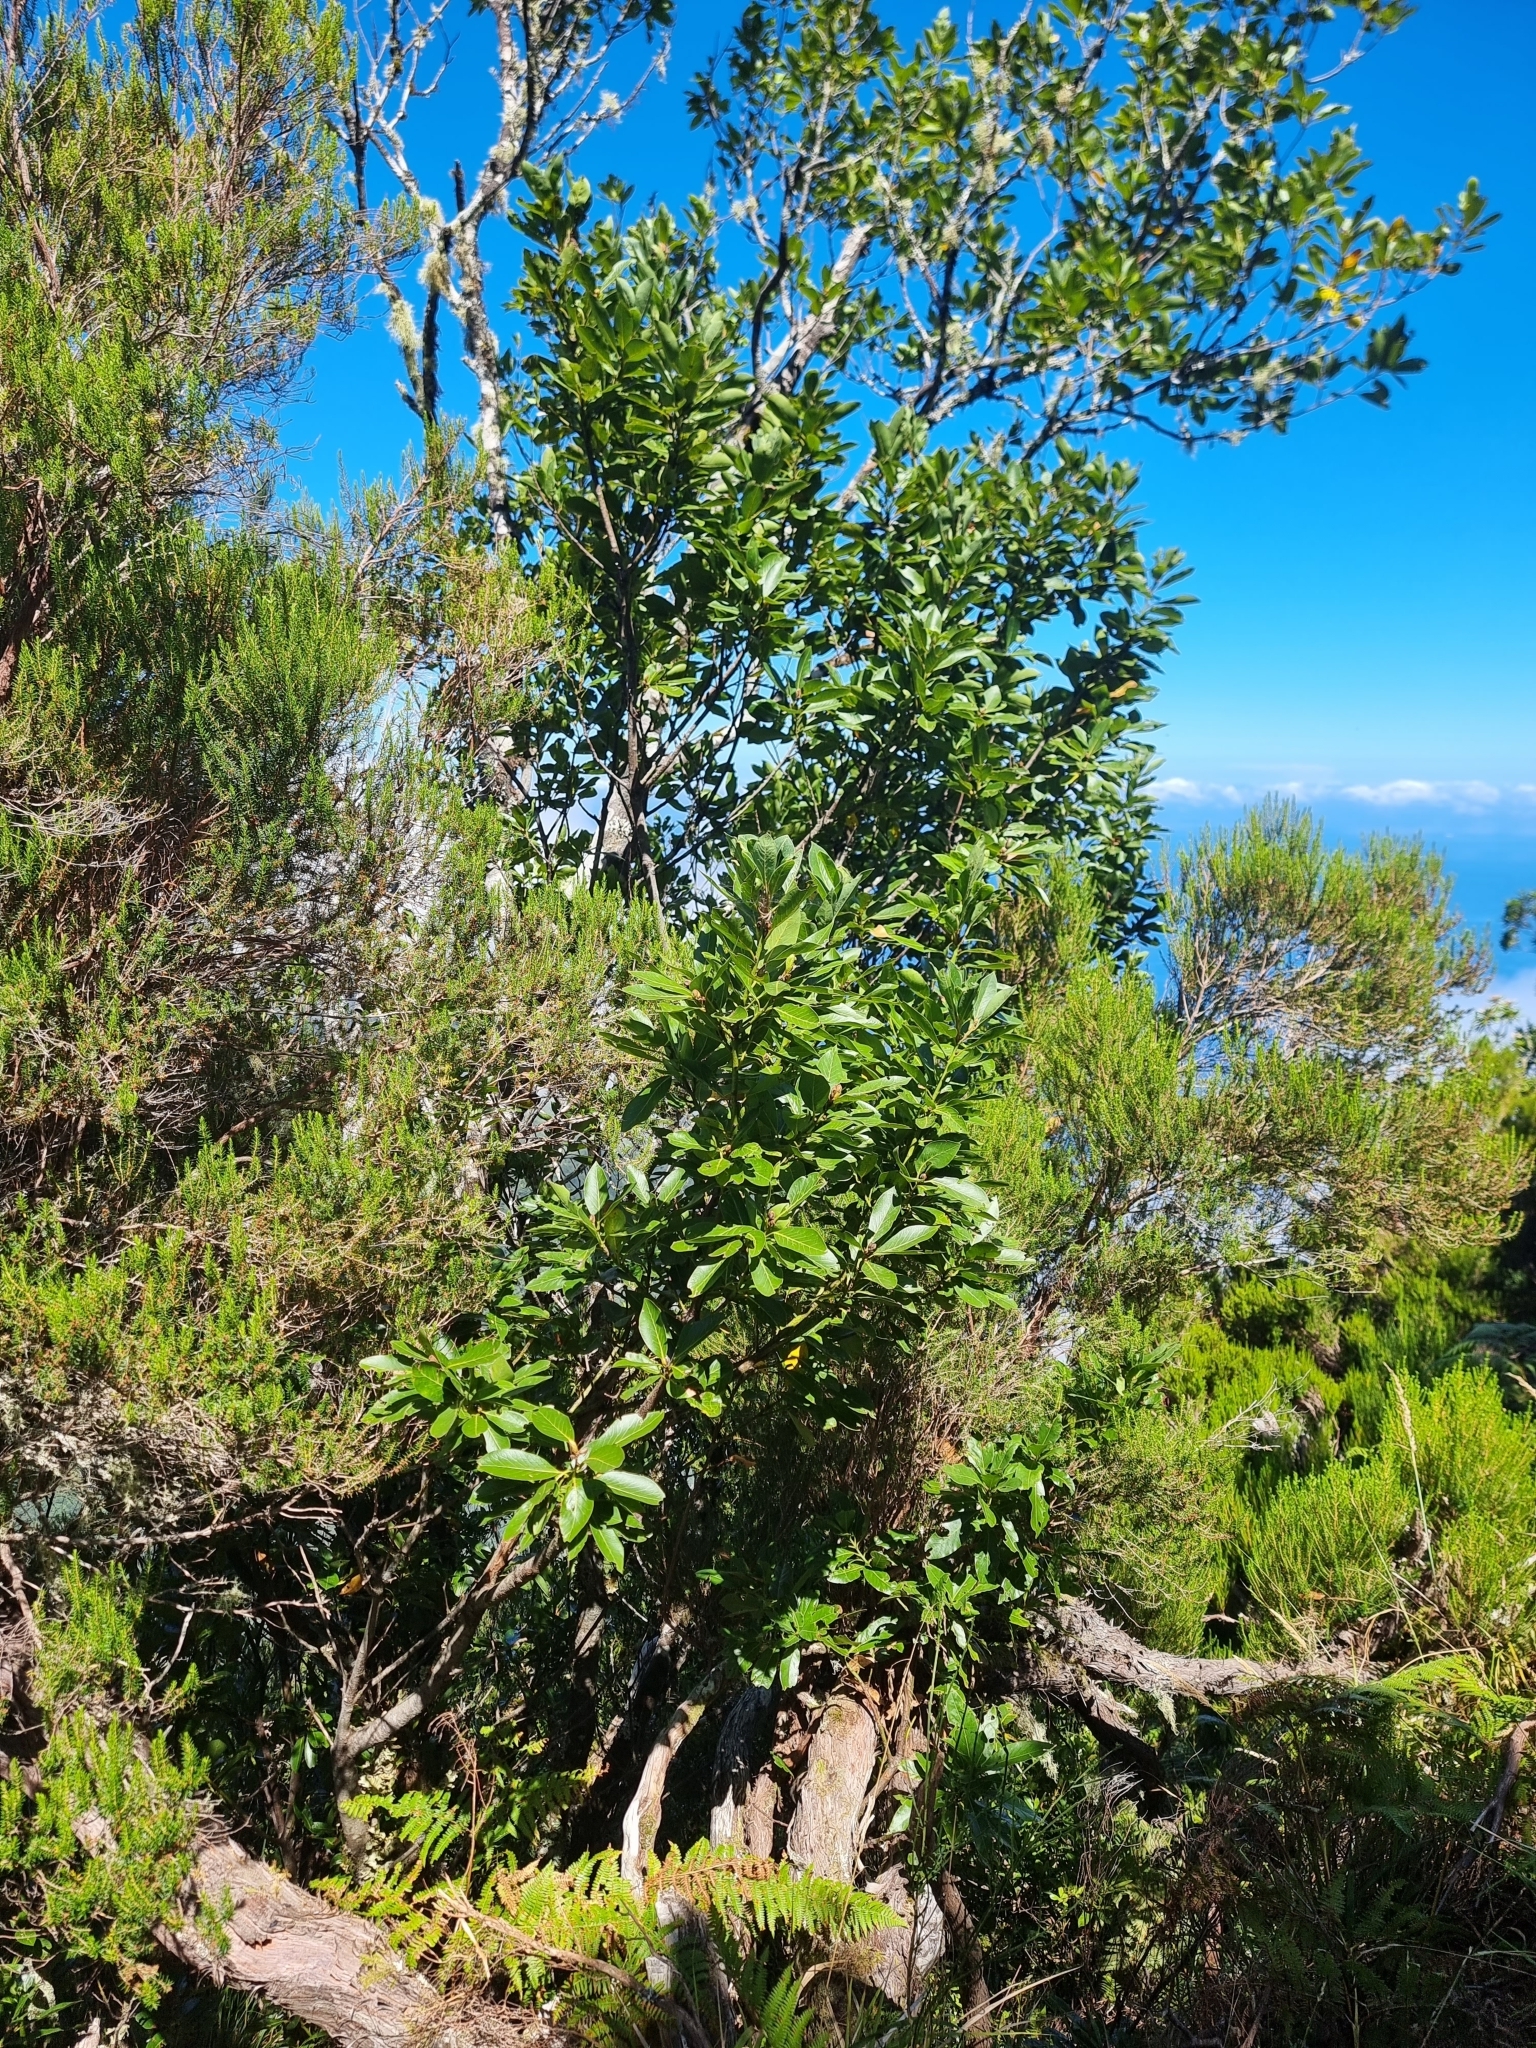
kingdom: Plantae
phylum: Tracheophyta
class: Magnoliopsida
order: Laurales
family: Lauraceae
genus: Laurus
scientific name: Laurus novocanariensis
